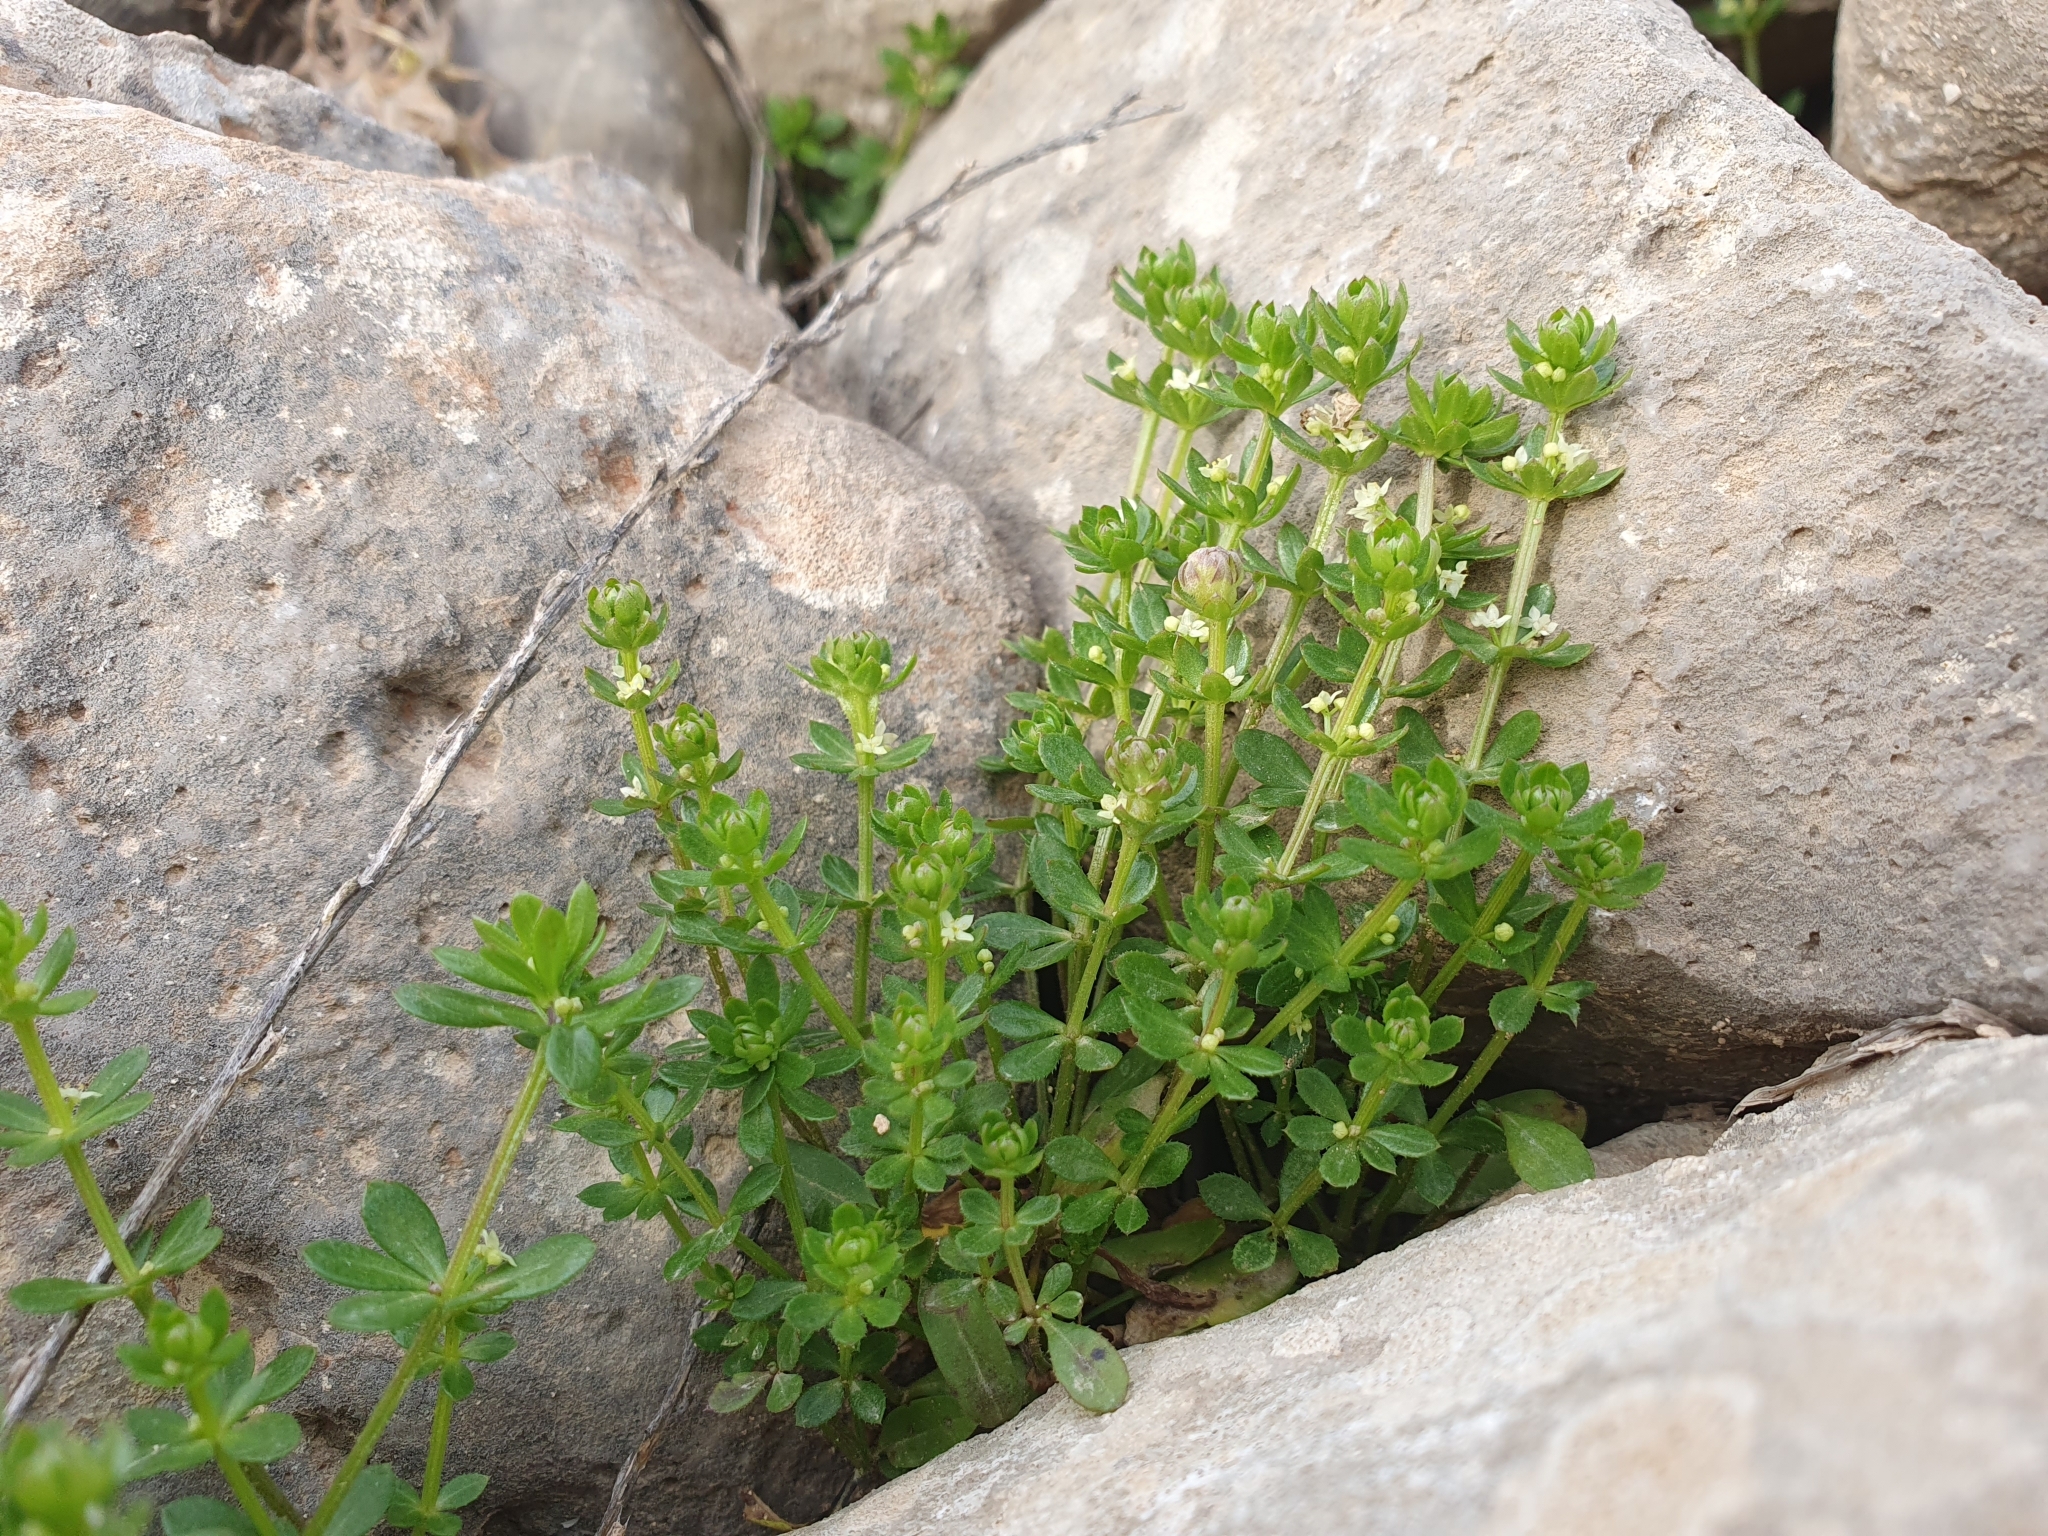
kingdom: Plantae
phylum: Tracheophyta
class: Magnoliopsida
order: Gentianales
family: Rubiaceae
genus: Galium
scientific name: Galium verrucosum
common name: Warty bedstraw
